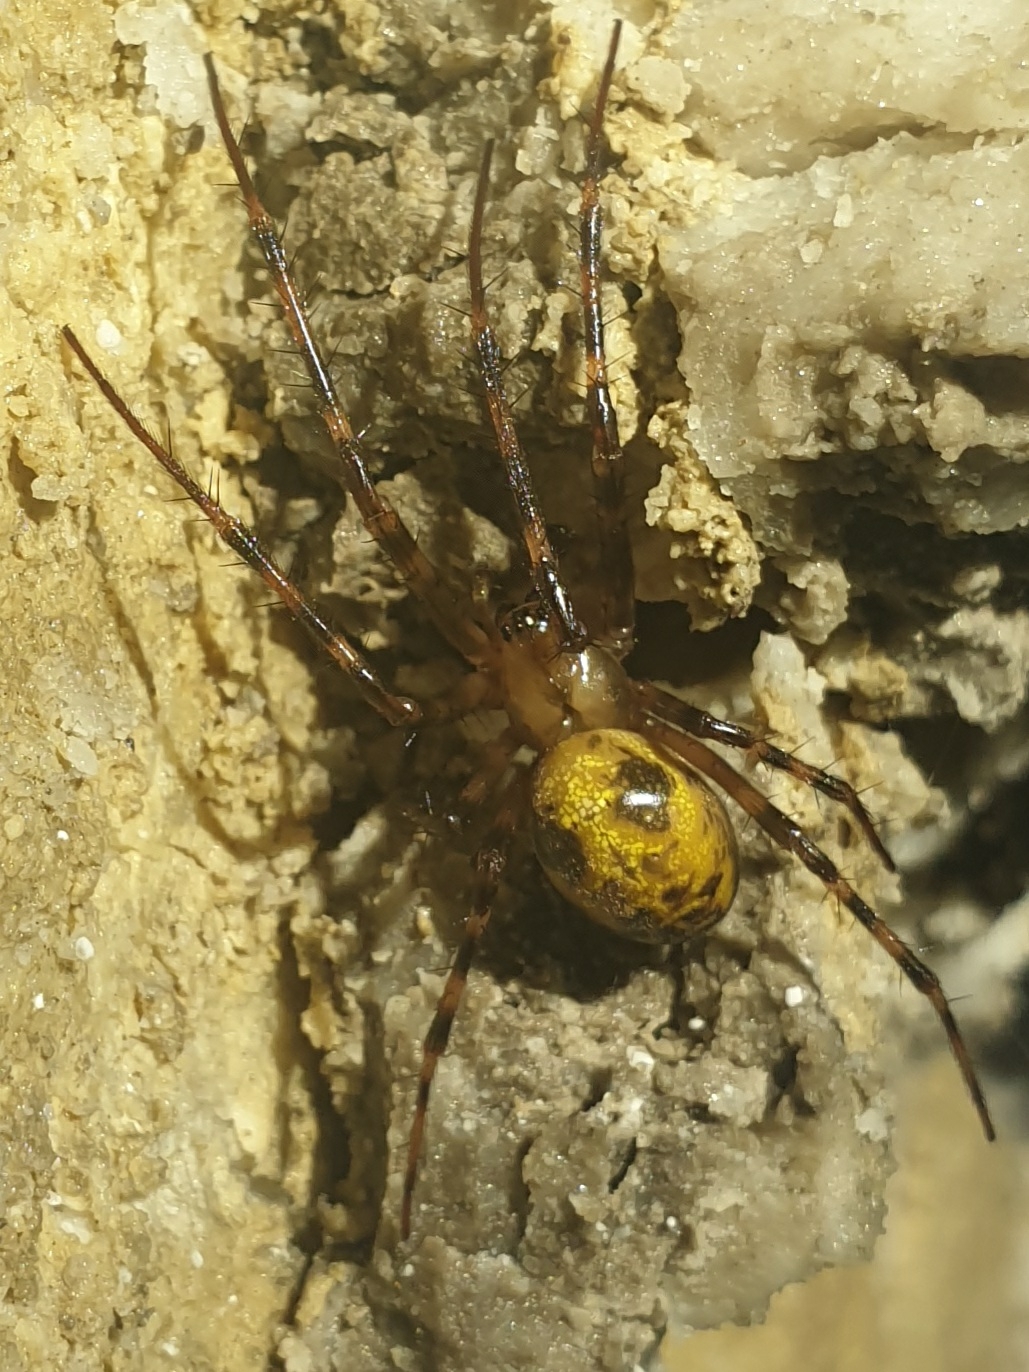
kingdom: Animalia
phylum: Arthropoda
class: Arachnida
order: Araneae
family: Tetragnathidae
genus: Meta
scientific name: Meta menardi
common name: Cave spider
